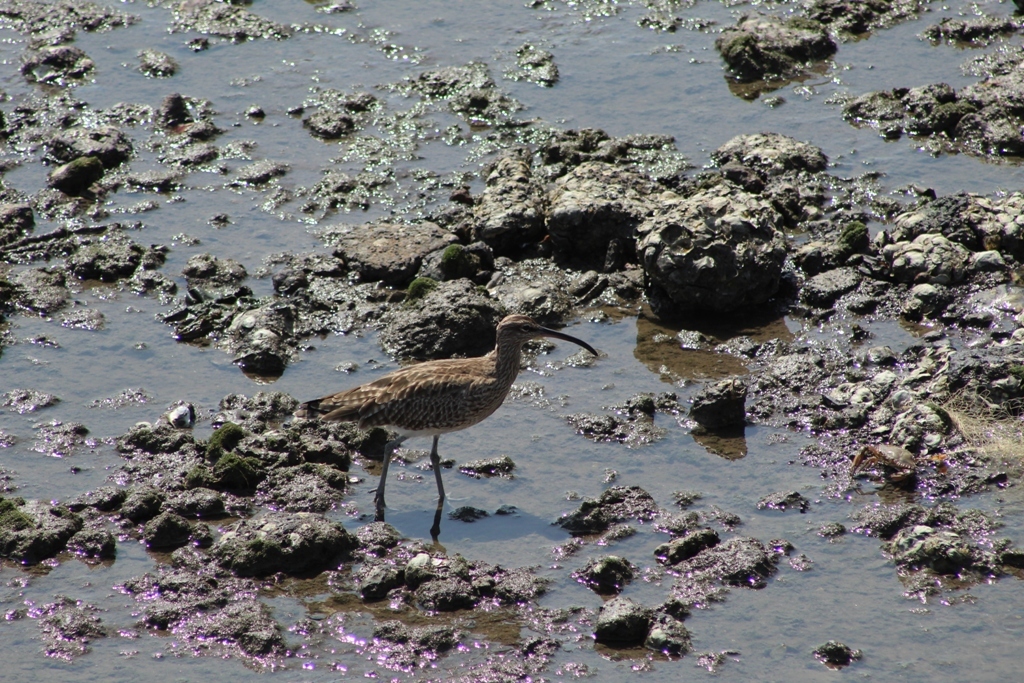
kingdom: Animalia
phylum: Chordata
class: Aves
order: Charadriiformes
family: Scolopacidae
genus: Numenius
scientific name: Numenius phaeopus
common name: Whimbrel
